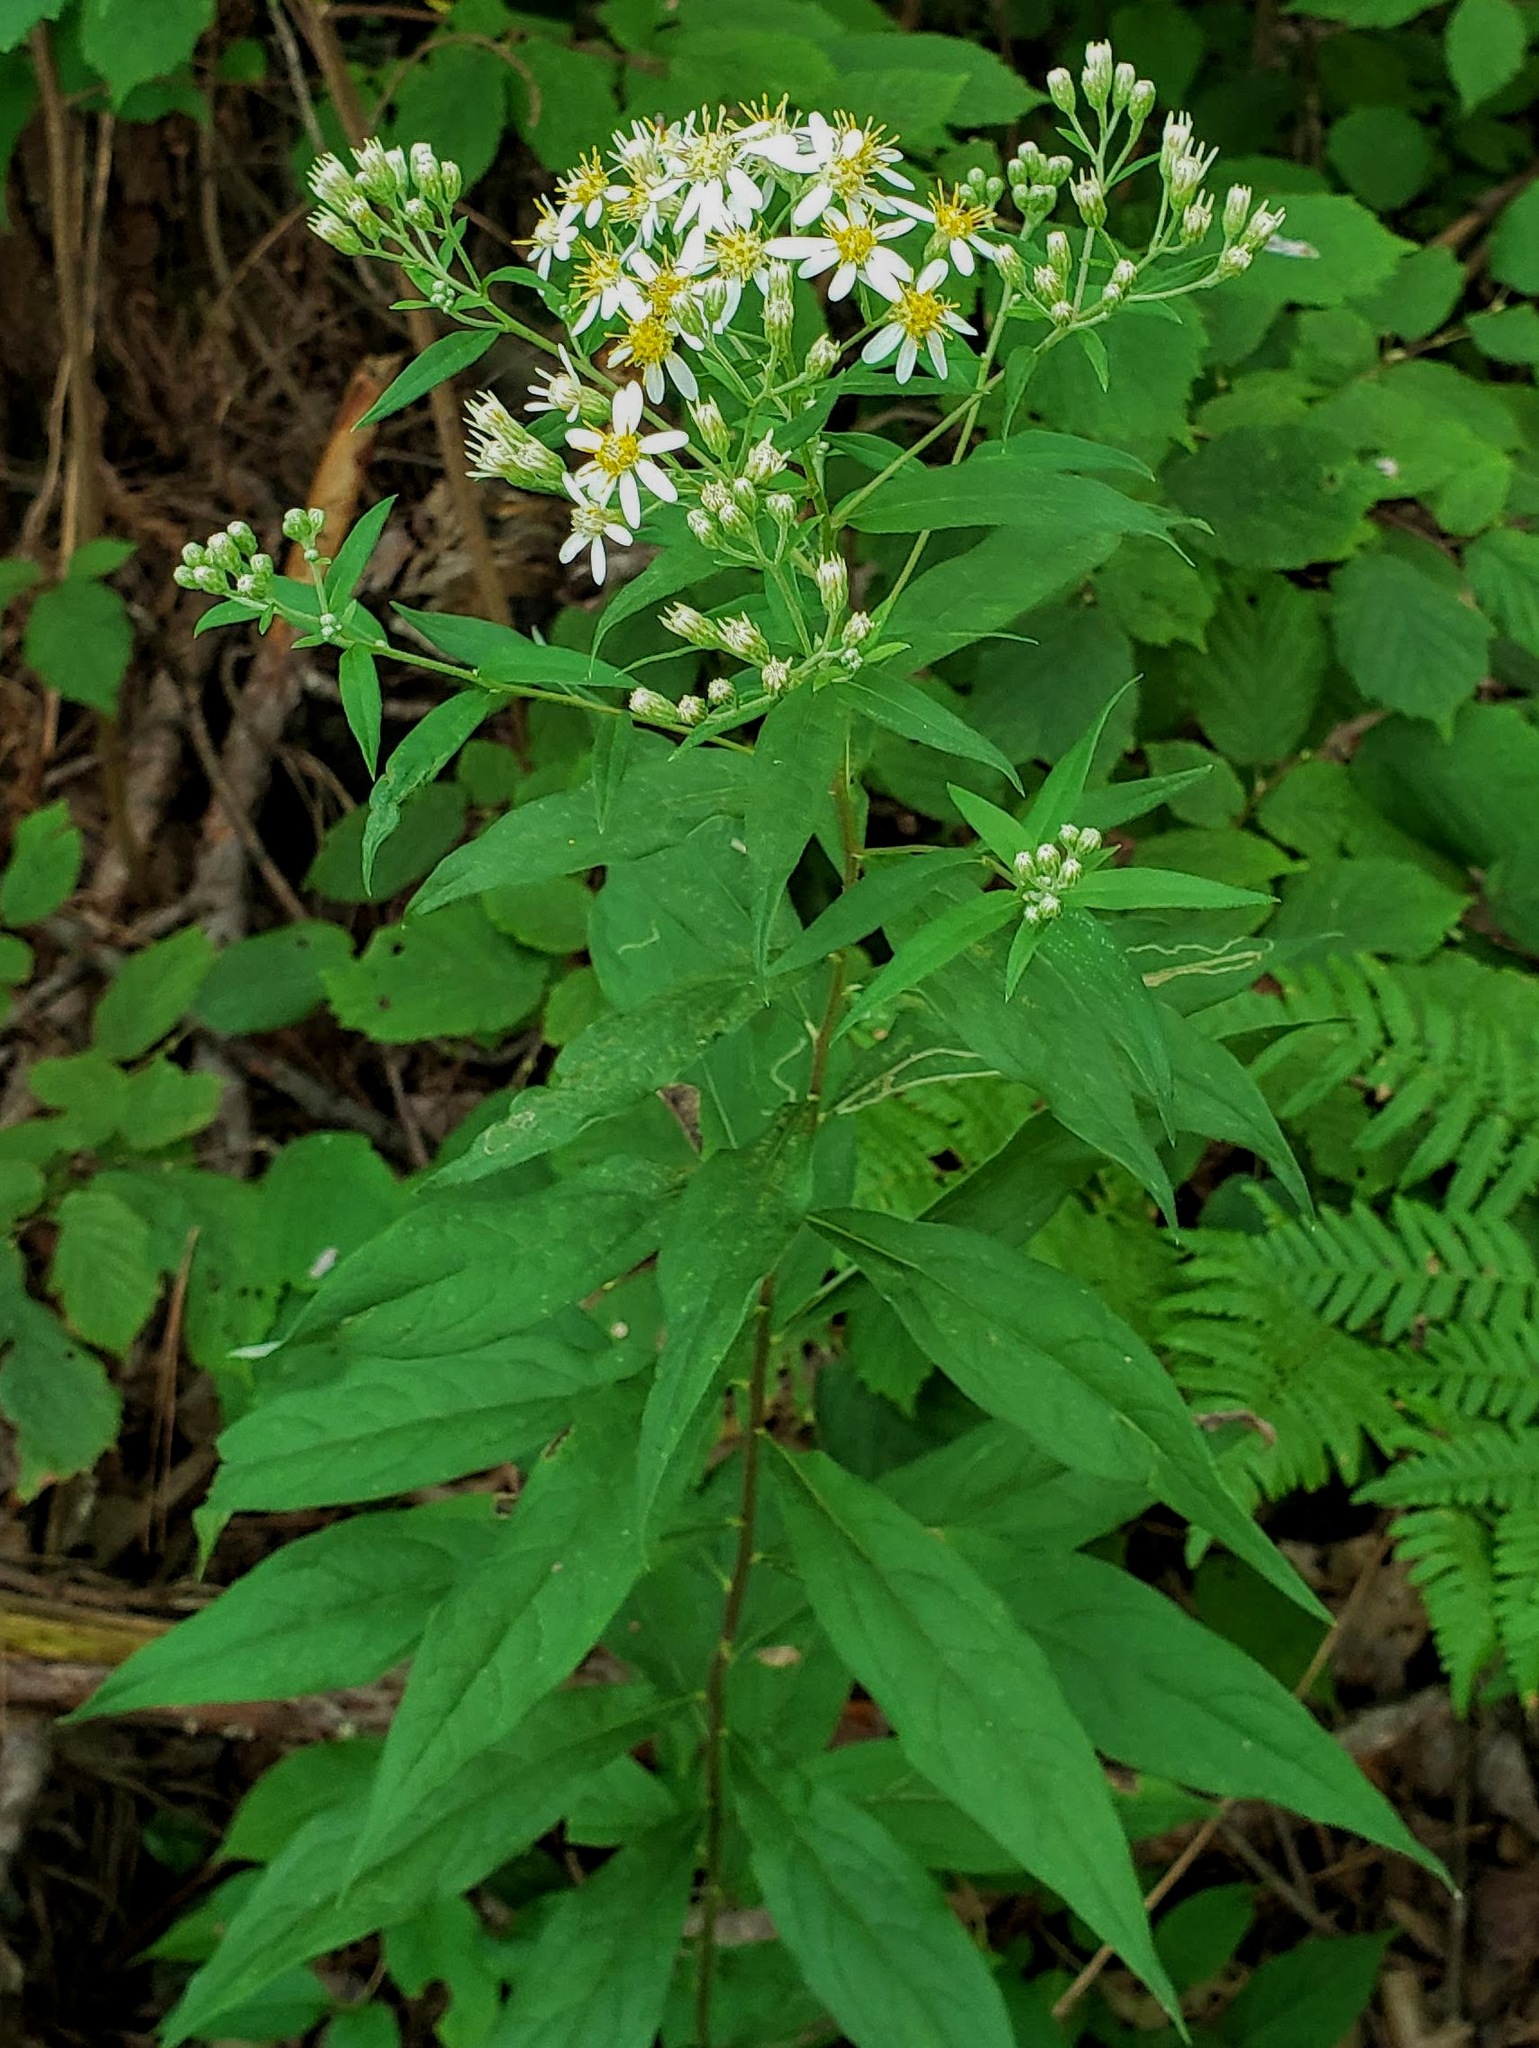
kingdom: Plantae
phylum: Tracheophyta
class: Magnoliopsida
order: Asterales
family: Asteraceae
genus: Doellingeria
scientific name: Doellingeria umbellata
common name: Flat-top white aster
